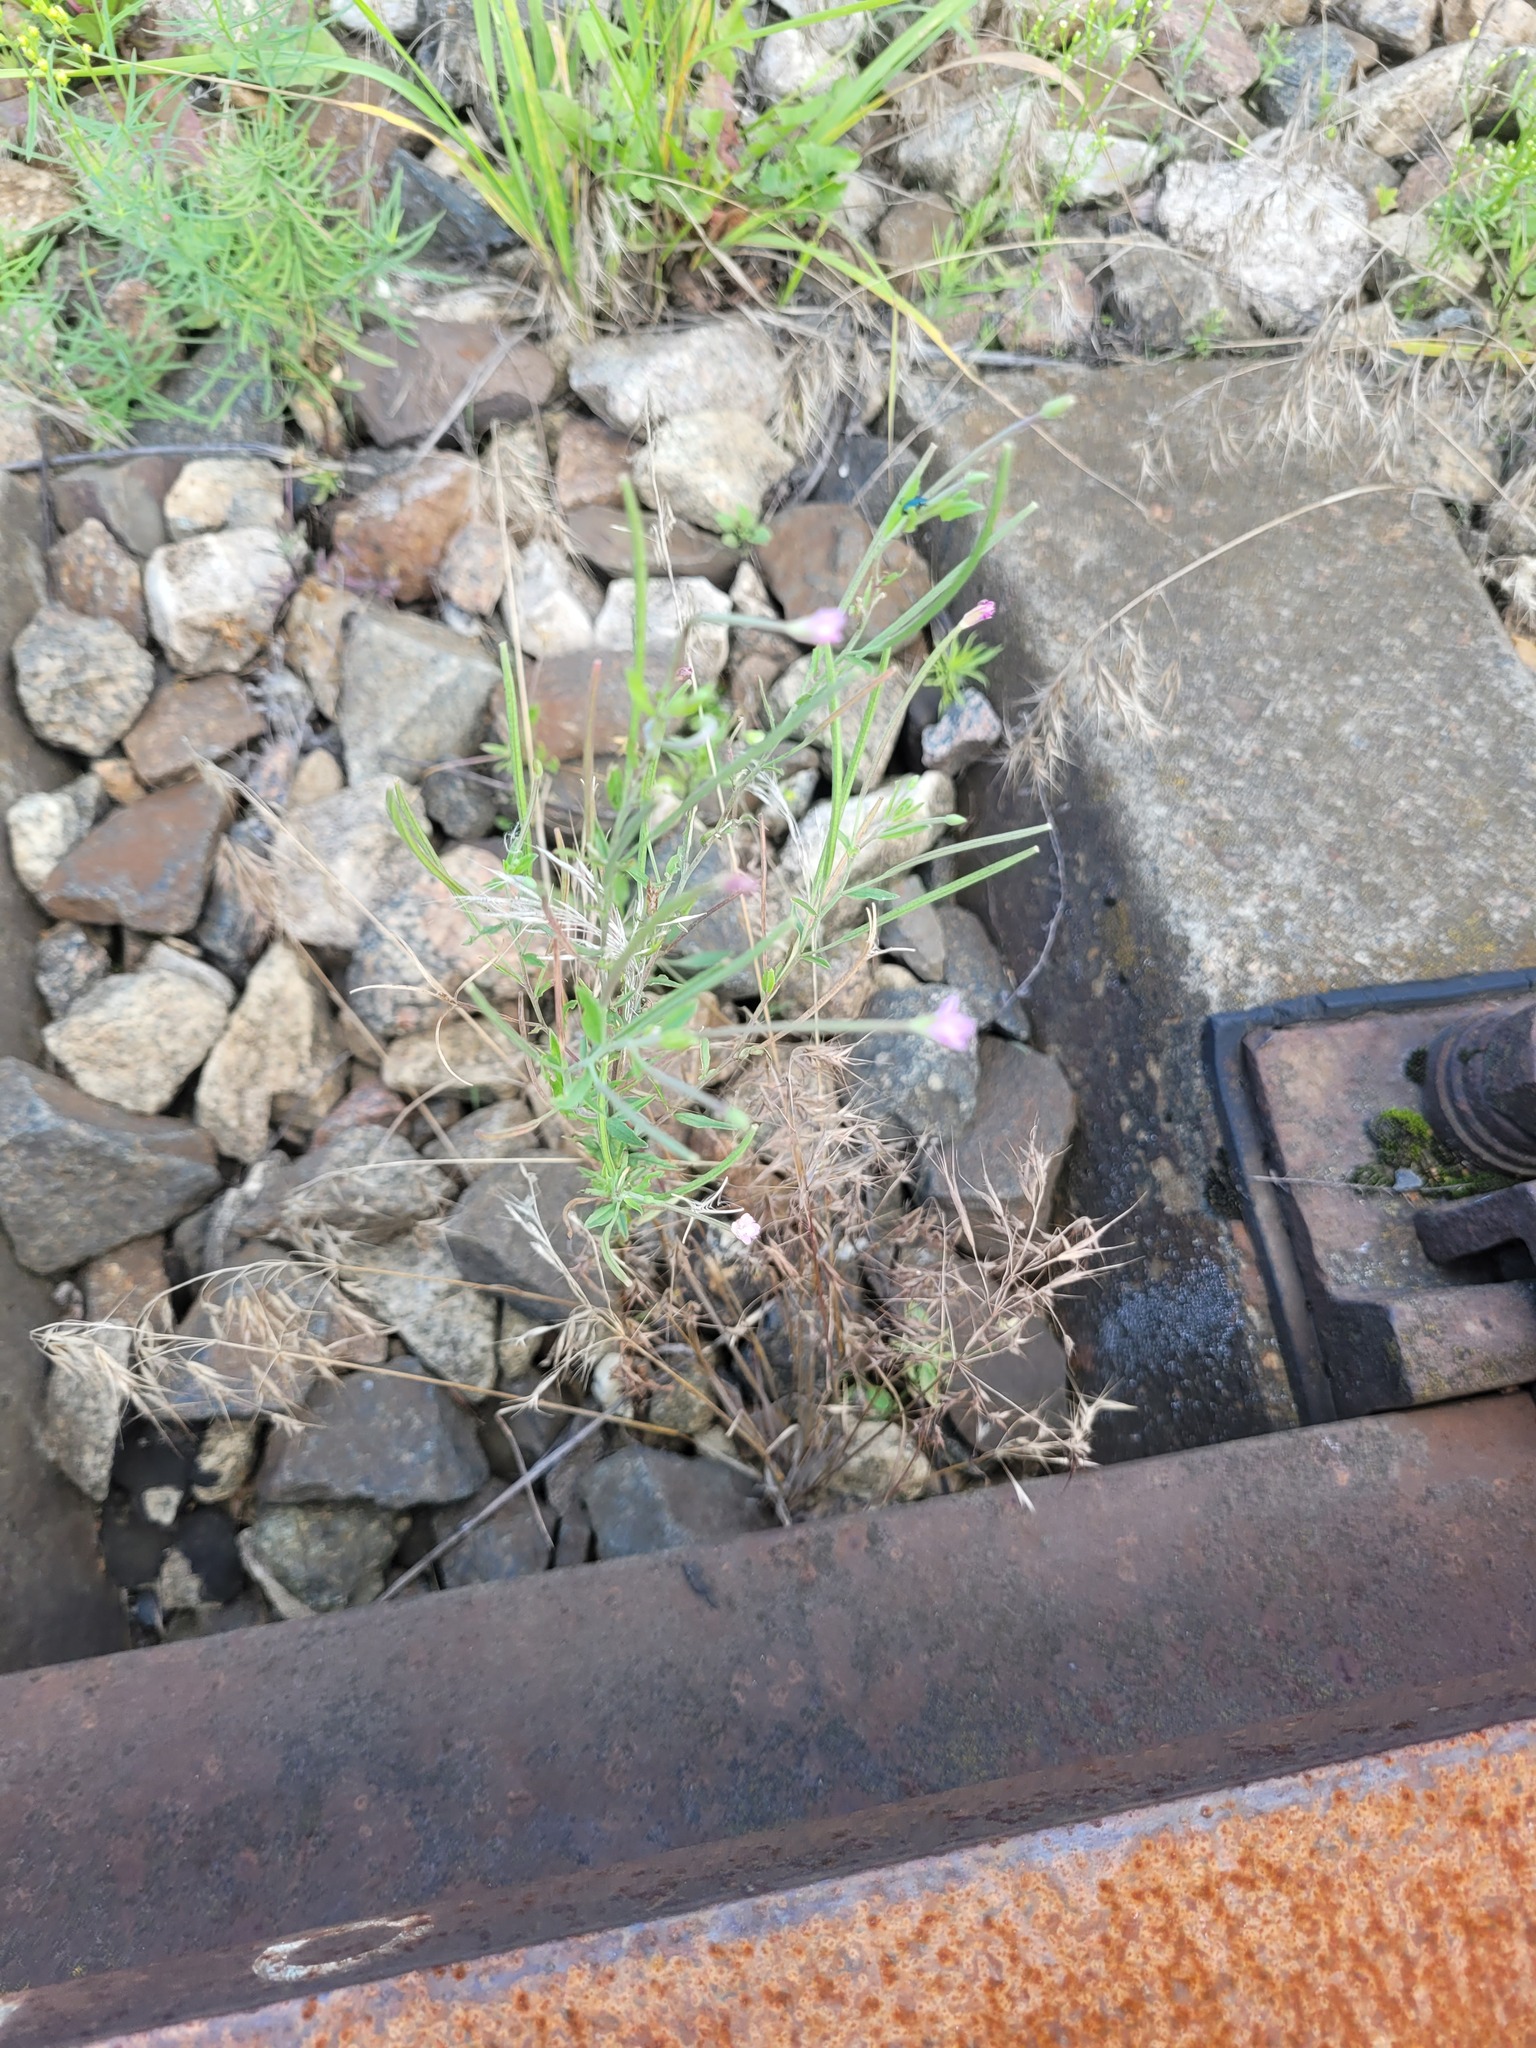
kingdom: Plantae
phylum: Tracheophyta
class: Magnoliopsida
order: Myrtales
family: Onagraceae
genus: Epilobium
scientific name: Epilobium lamyi
